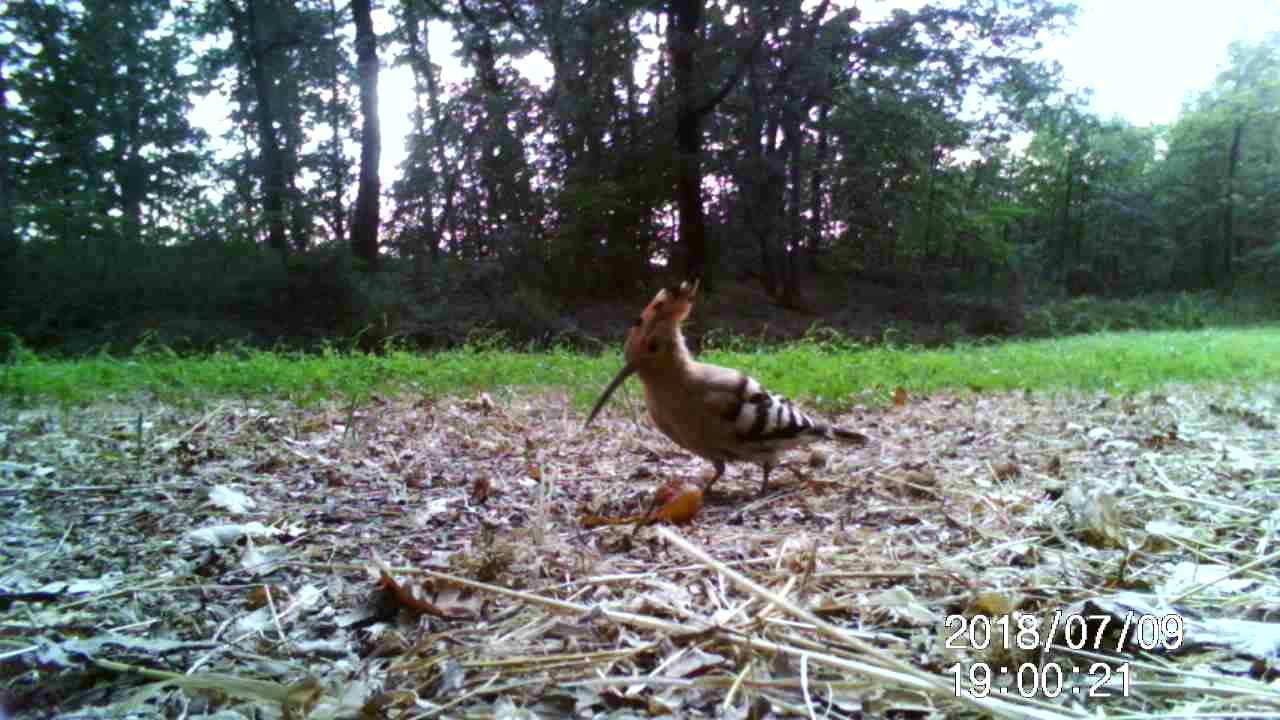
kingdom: Animalia
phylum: Chordata
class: Aves
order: Bucerotiformes
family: Upupidae
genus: Upupa
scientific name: Upupa epops
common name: Eurasian hoopoe
